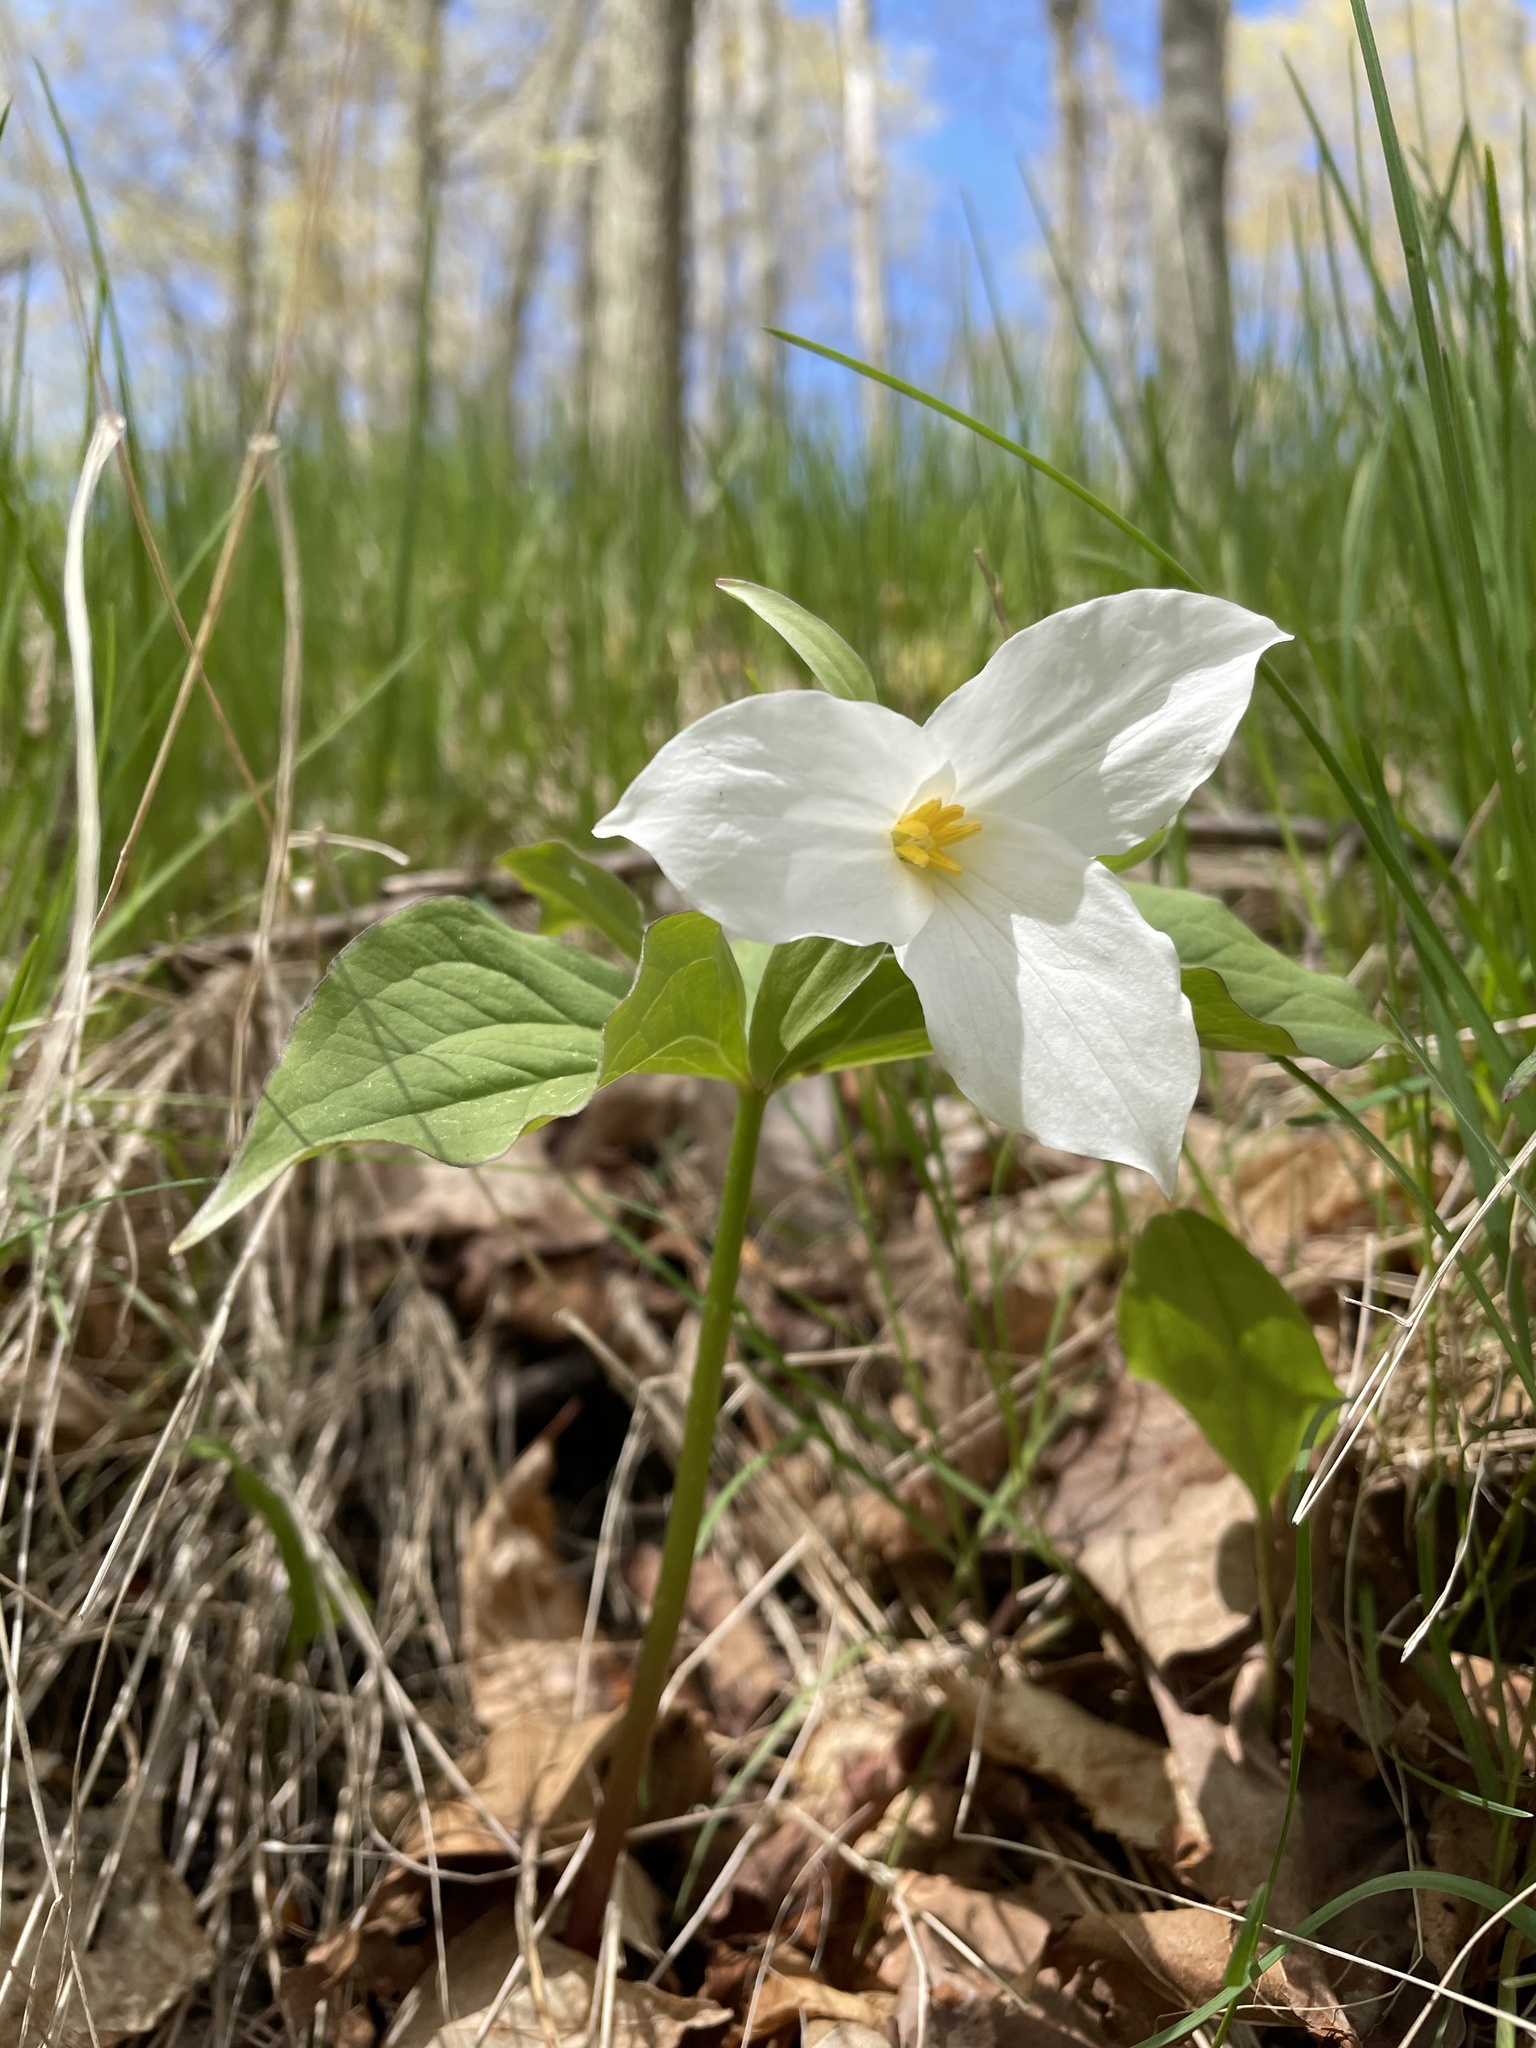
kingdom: Plantae
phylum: Tracheophyta
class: Liliopsida
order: Liliales
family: Melanthiaceae
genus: Trillium
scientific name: Trillium grandiflorum
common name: Great white trillium
